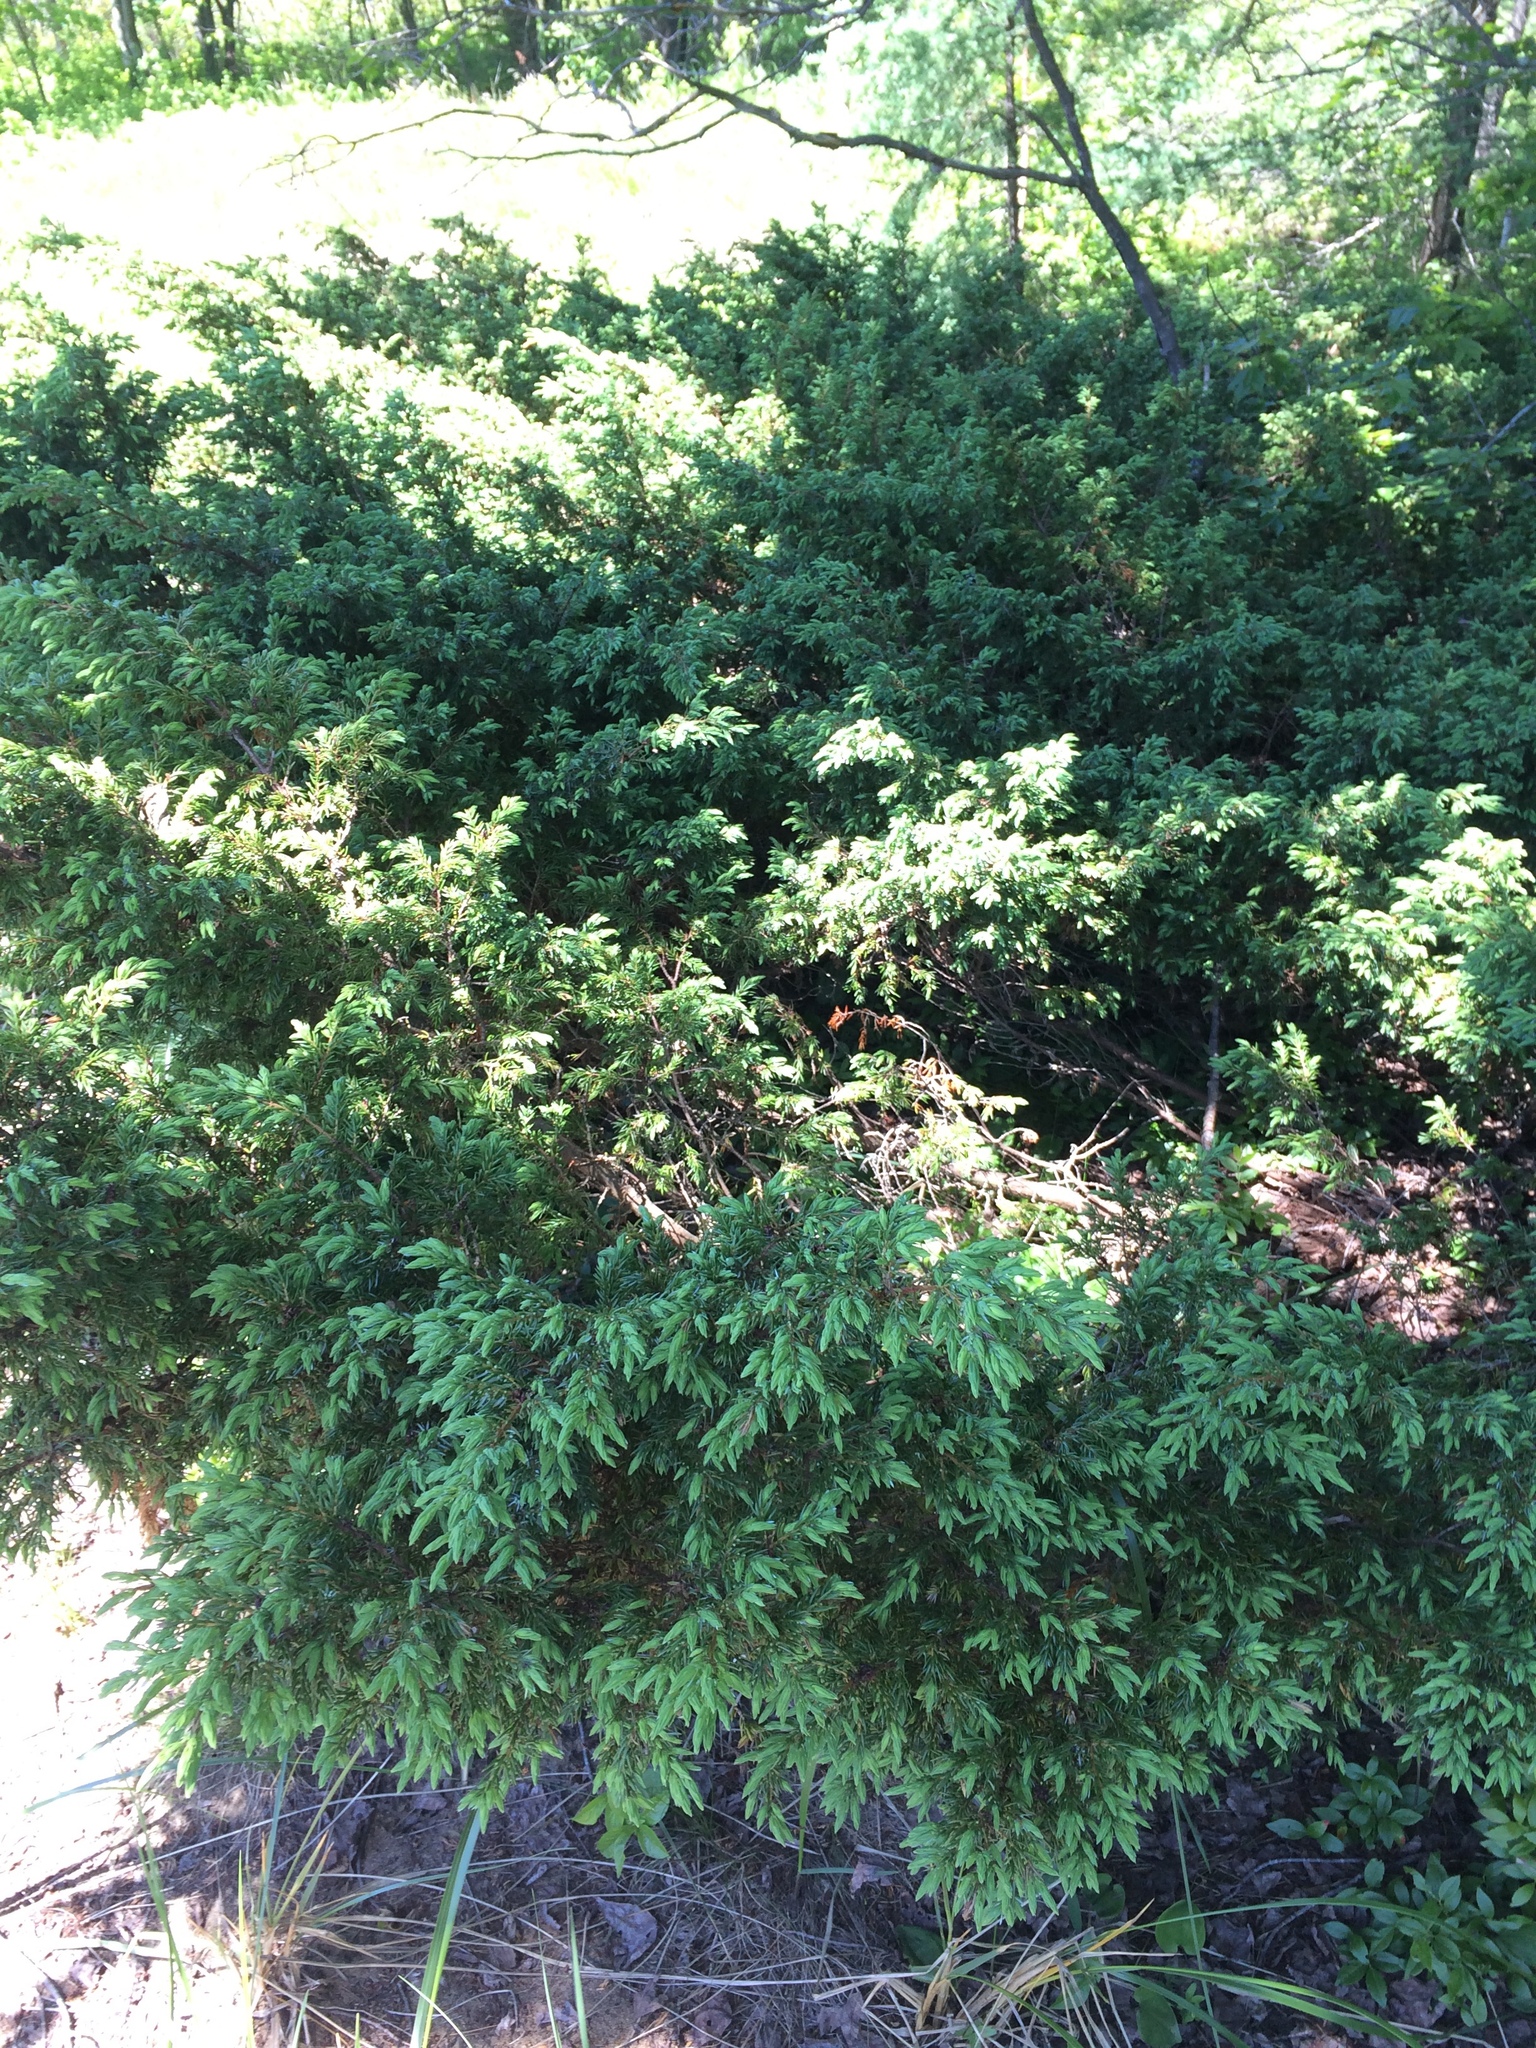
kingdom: Plantae
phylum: Tracheophyta
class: Pinopsida
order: Pinales
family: Cupressaceae
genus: Juniperus
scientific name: Juniperus communis
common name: Common juniper
